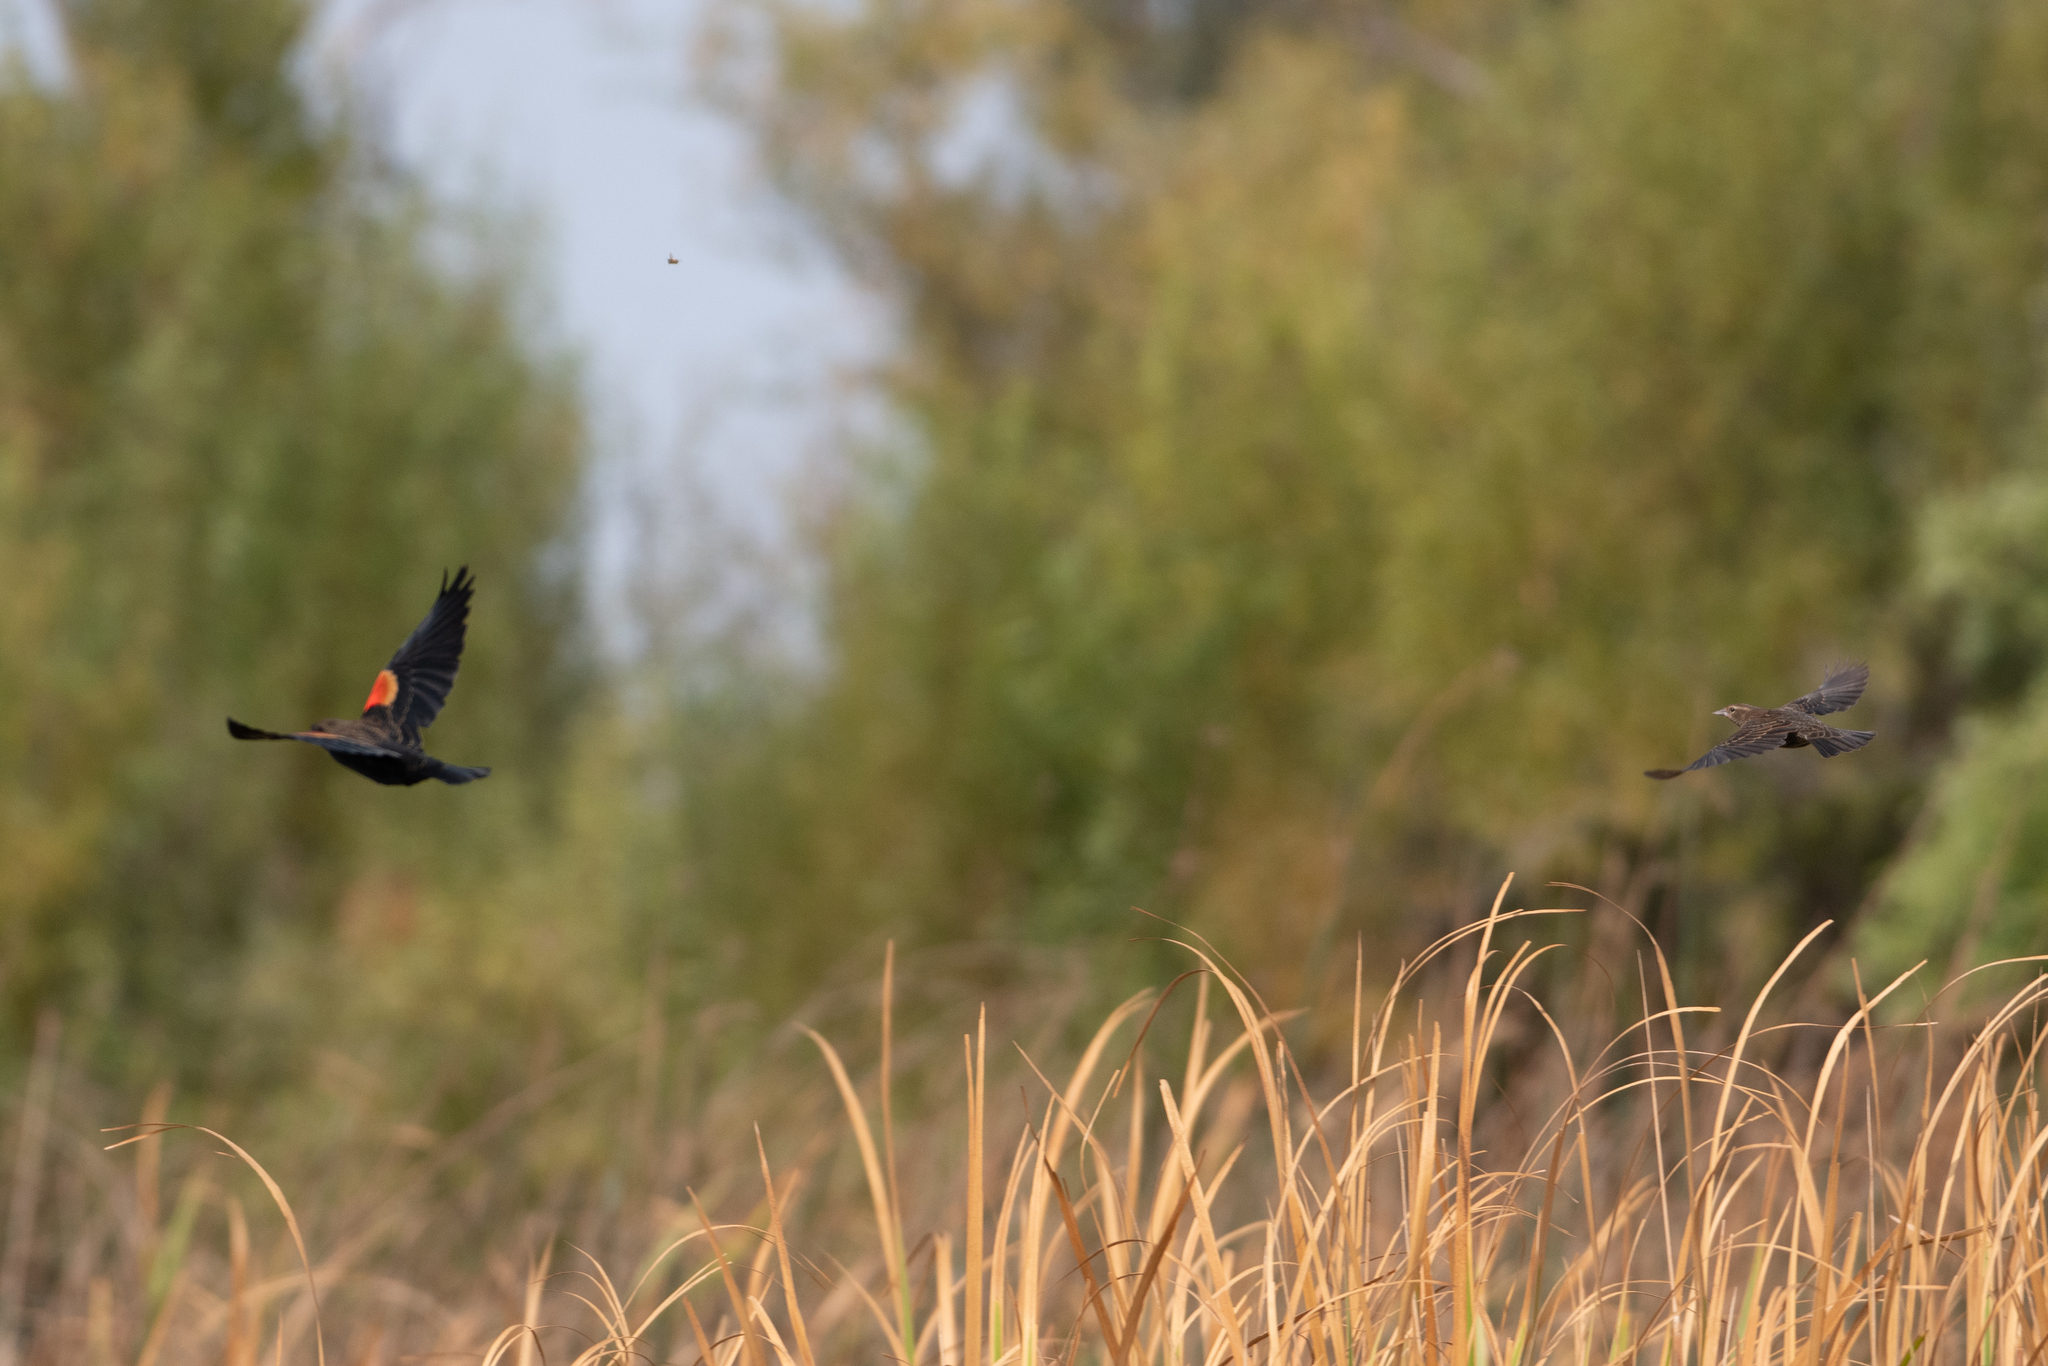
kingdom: Animalia
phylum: Chordata
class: Aves
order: Passeriformes
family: Icteridae
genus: Agelaius
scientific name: Agelaius phoeniceus
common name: Red-winged blackbird
